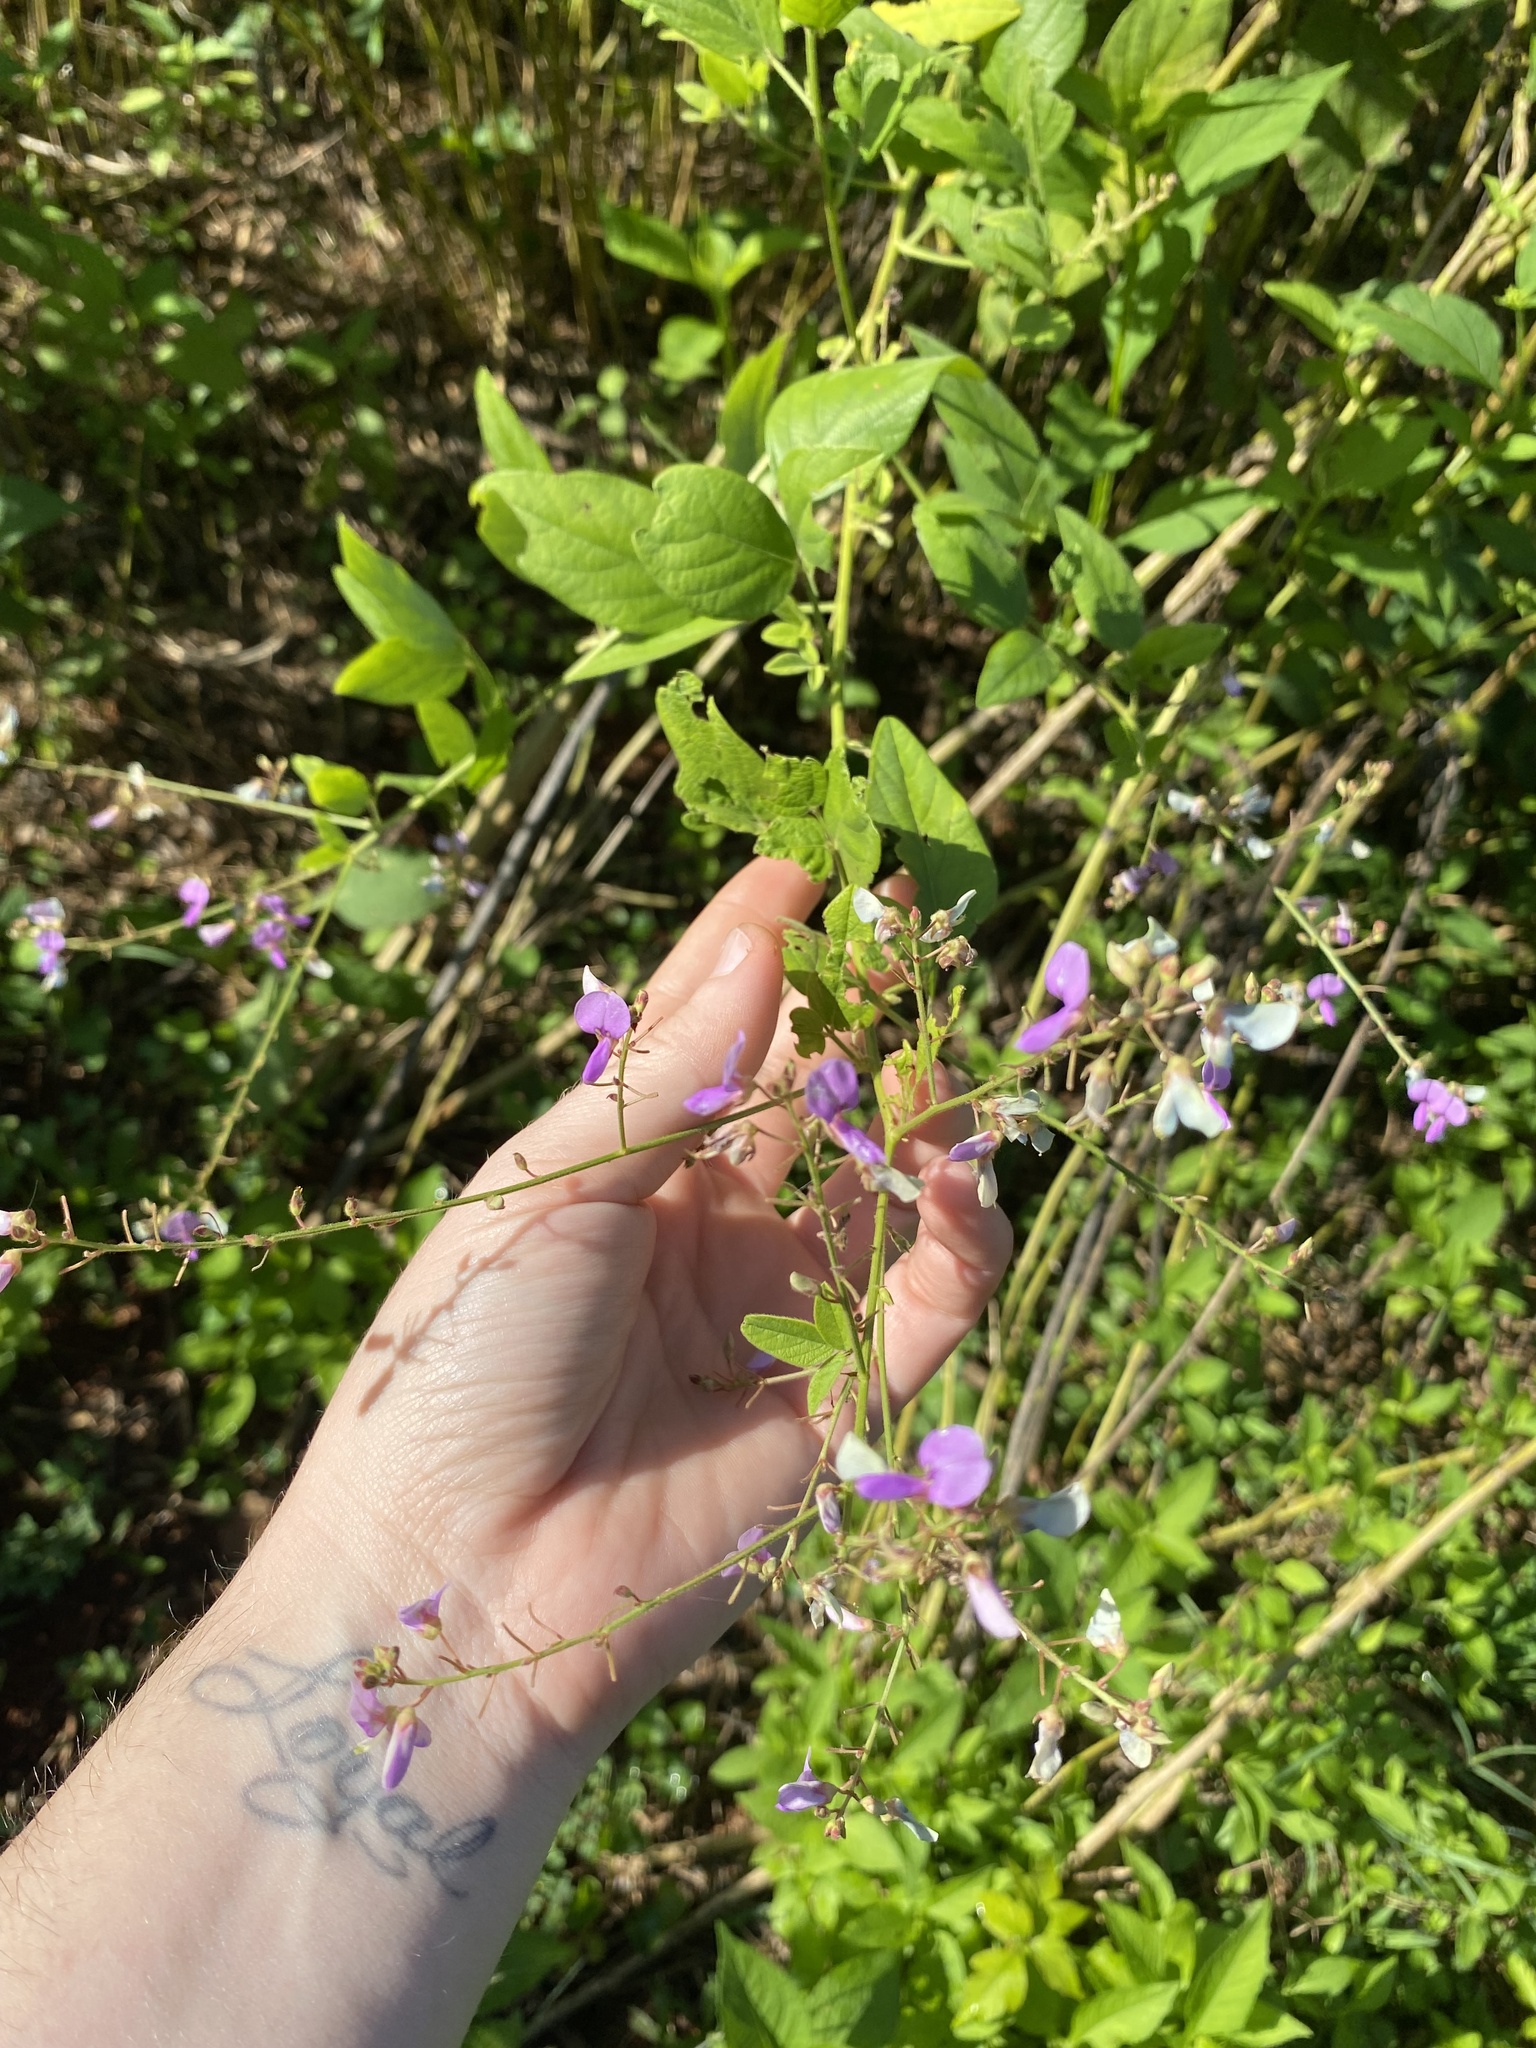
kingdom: Plantae
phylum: Tracheophyta
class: Magnoliopsida
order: Fabales
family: Fabaceae
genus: Desmodium
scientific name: Desmodium glabellum
